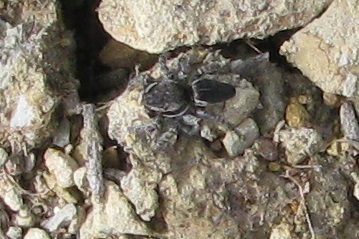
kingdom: Animalia
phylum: Arthropoda
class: Arachnida
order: Araneae
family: Salticidae
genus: Maratus
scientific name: Maratus proszynskii
